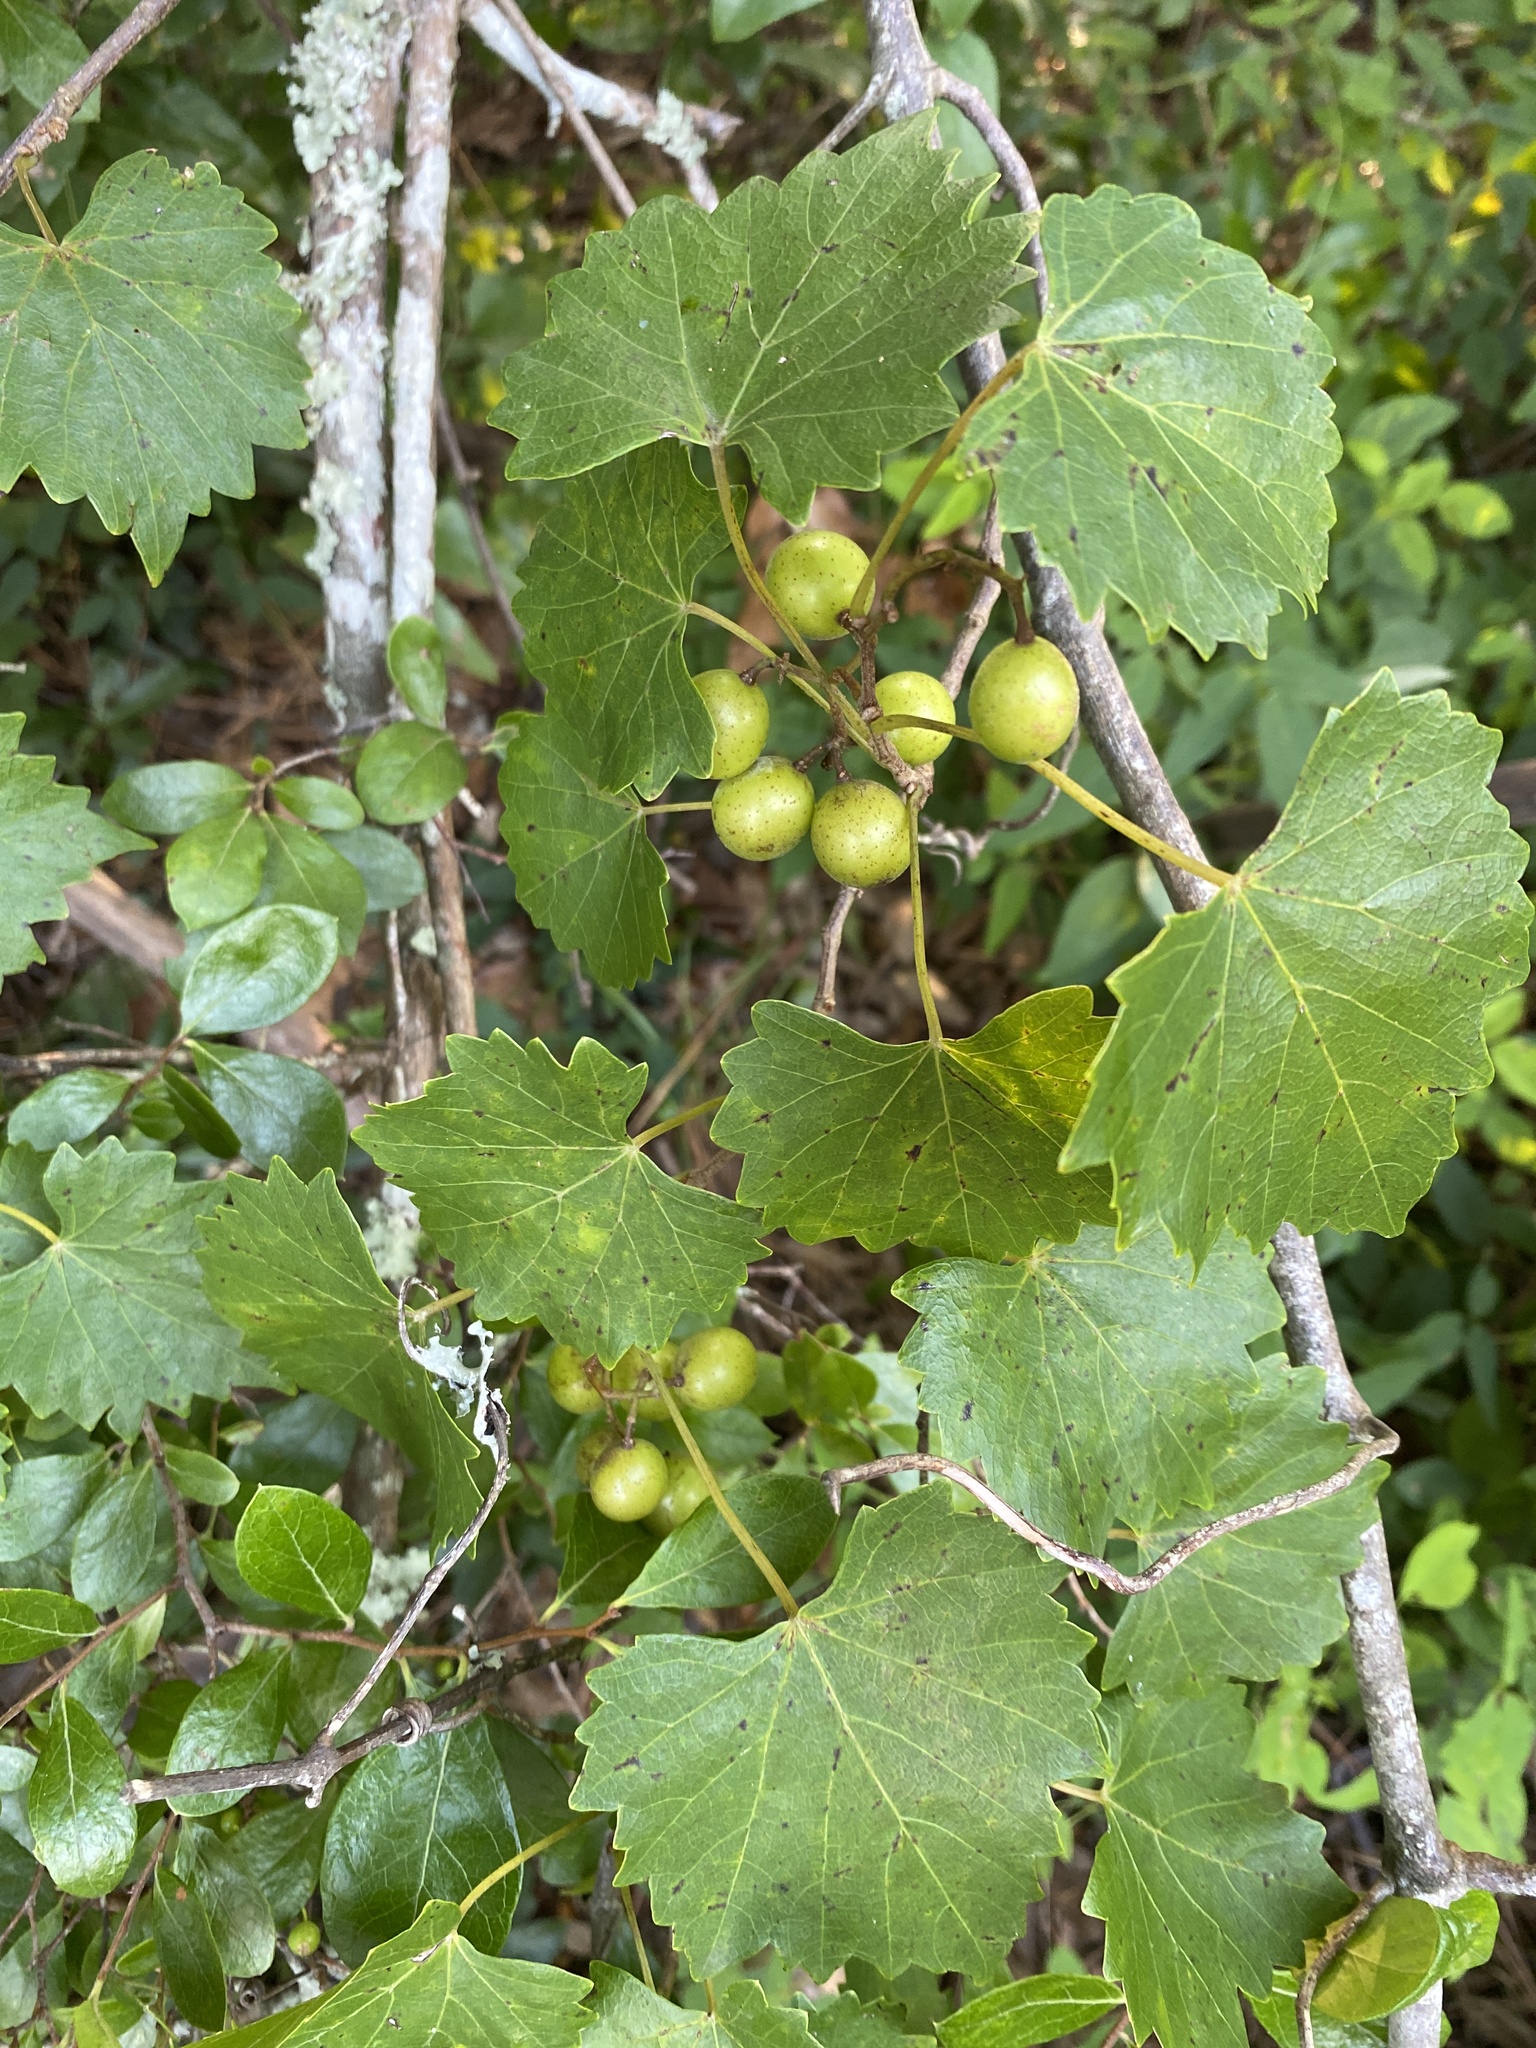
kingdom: Plantae
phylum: Tracheophyta
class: Magnoliopsida
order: Vitales
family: Vitaceae
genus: Vitis
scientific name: Vitis rotundifolia
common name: Muscadine grape
